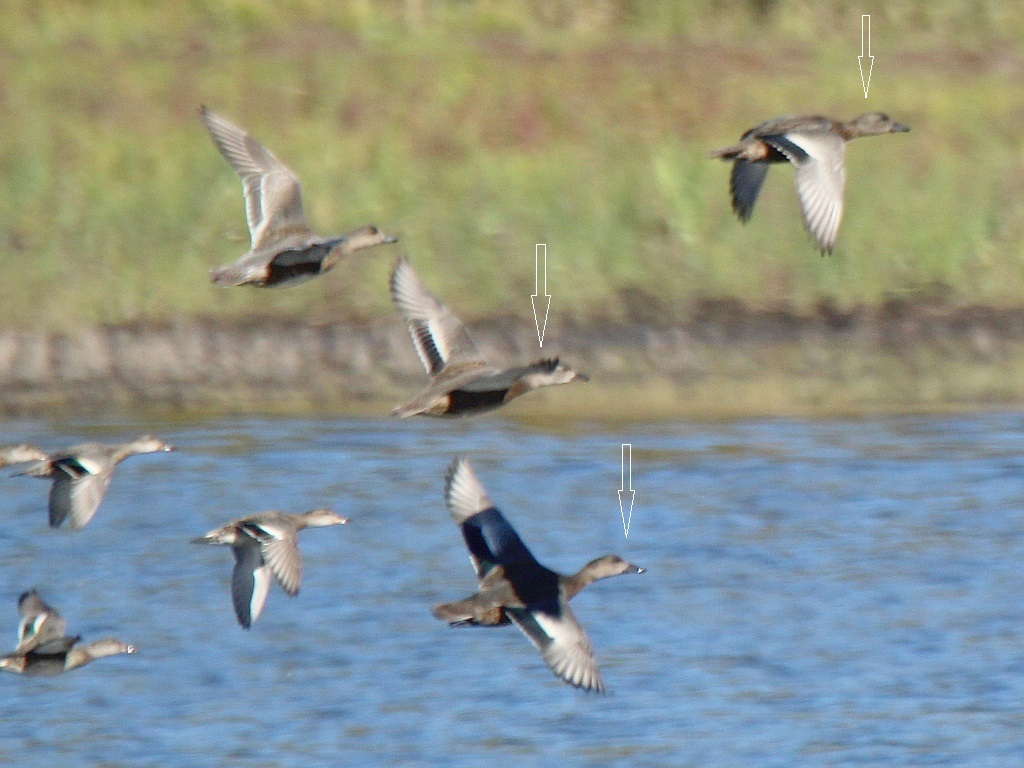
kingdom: Animalia
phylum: Chordata
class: Aves
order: Anseriformes
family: Anatidae
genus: Mareca
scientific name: Mareca falcata
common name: Falcated duck
